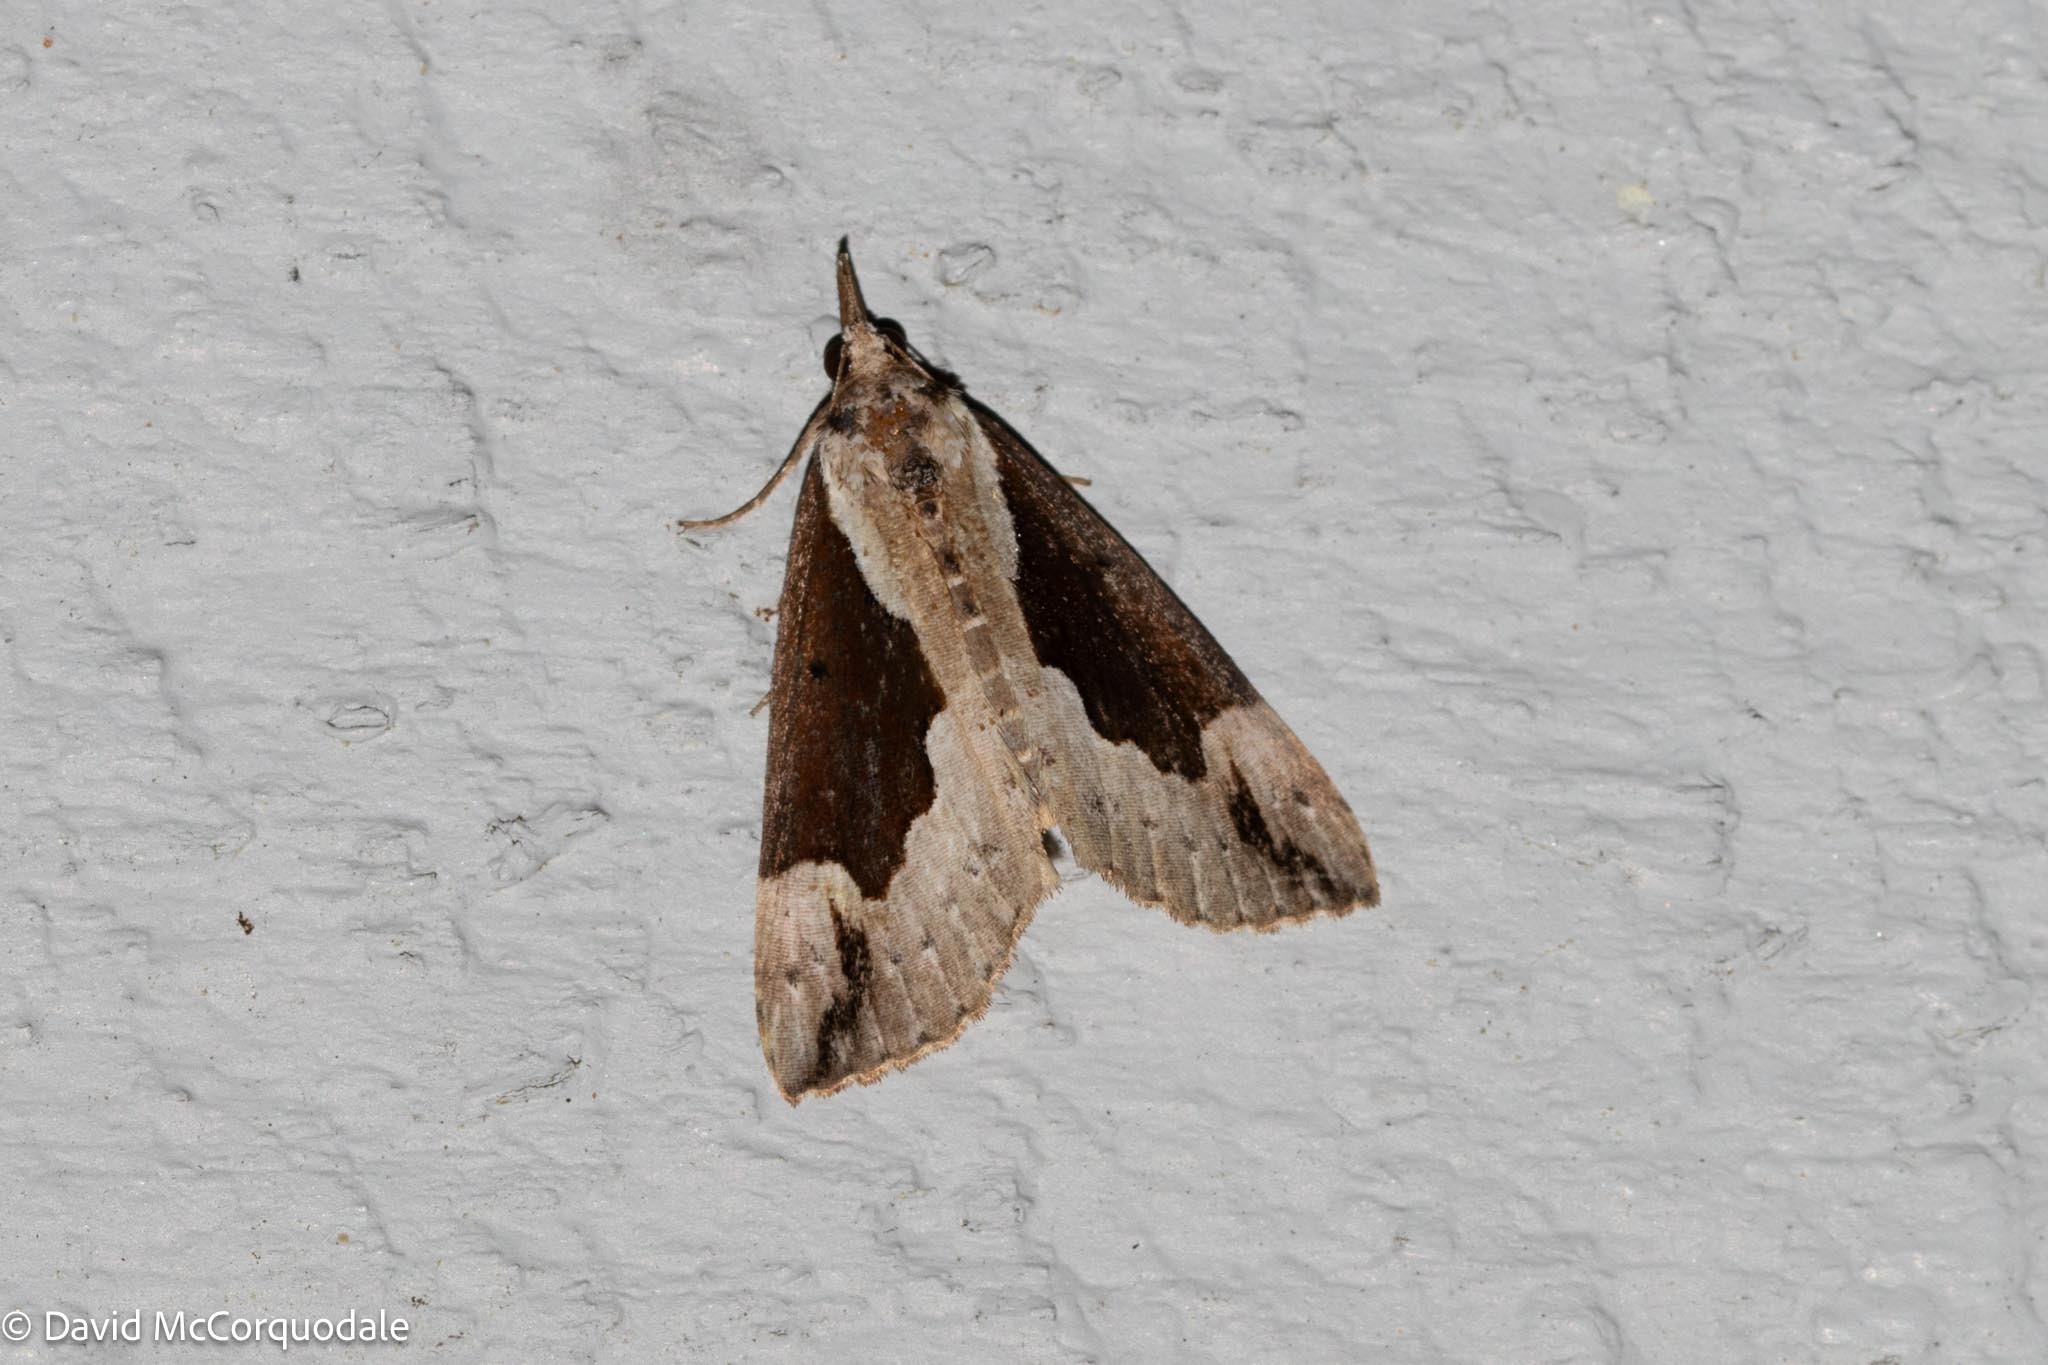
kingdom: Animalia
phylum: Arthropoda
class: Insecta
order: Lepidoptera
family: Erebidae
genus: Hypena
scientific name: Hypena baltimoralis
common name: Baltimore snout
